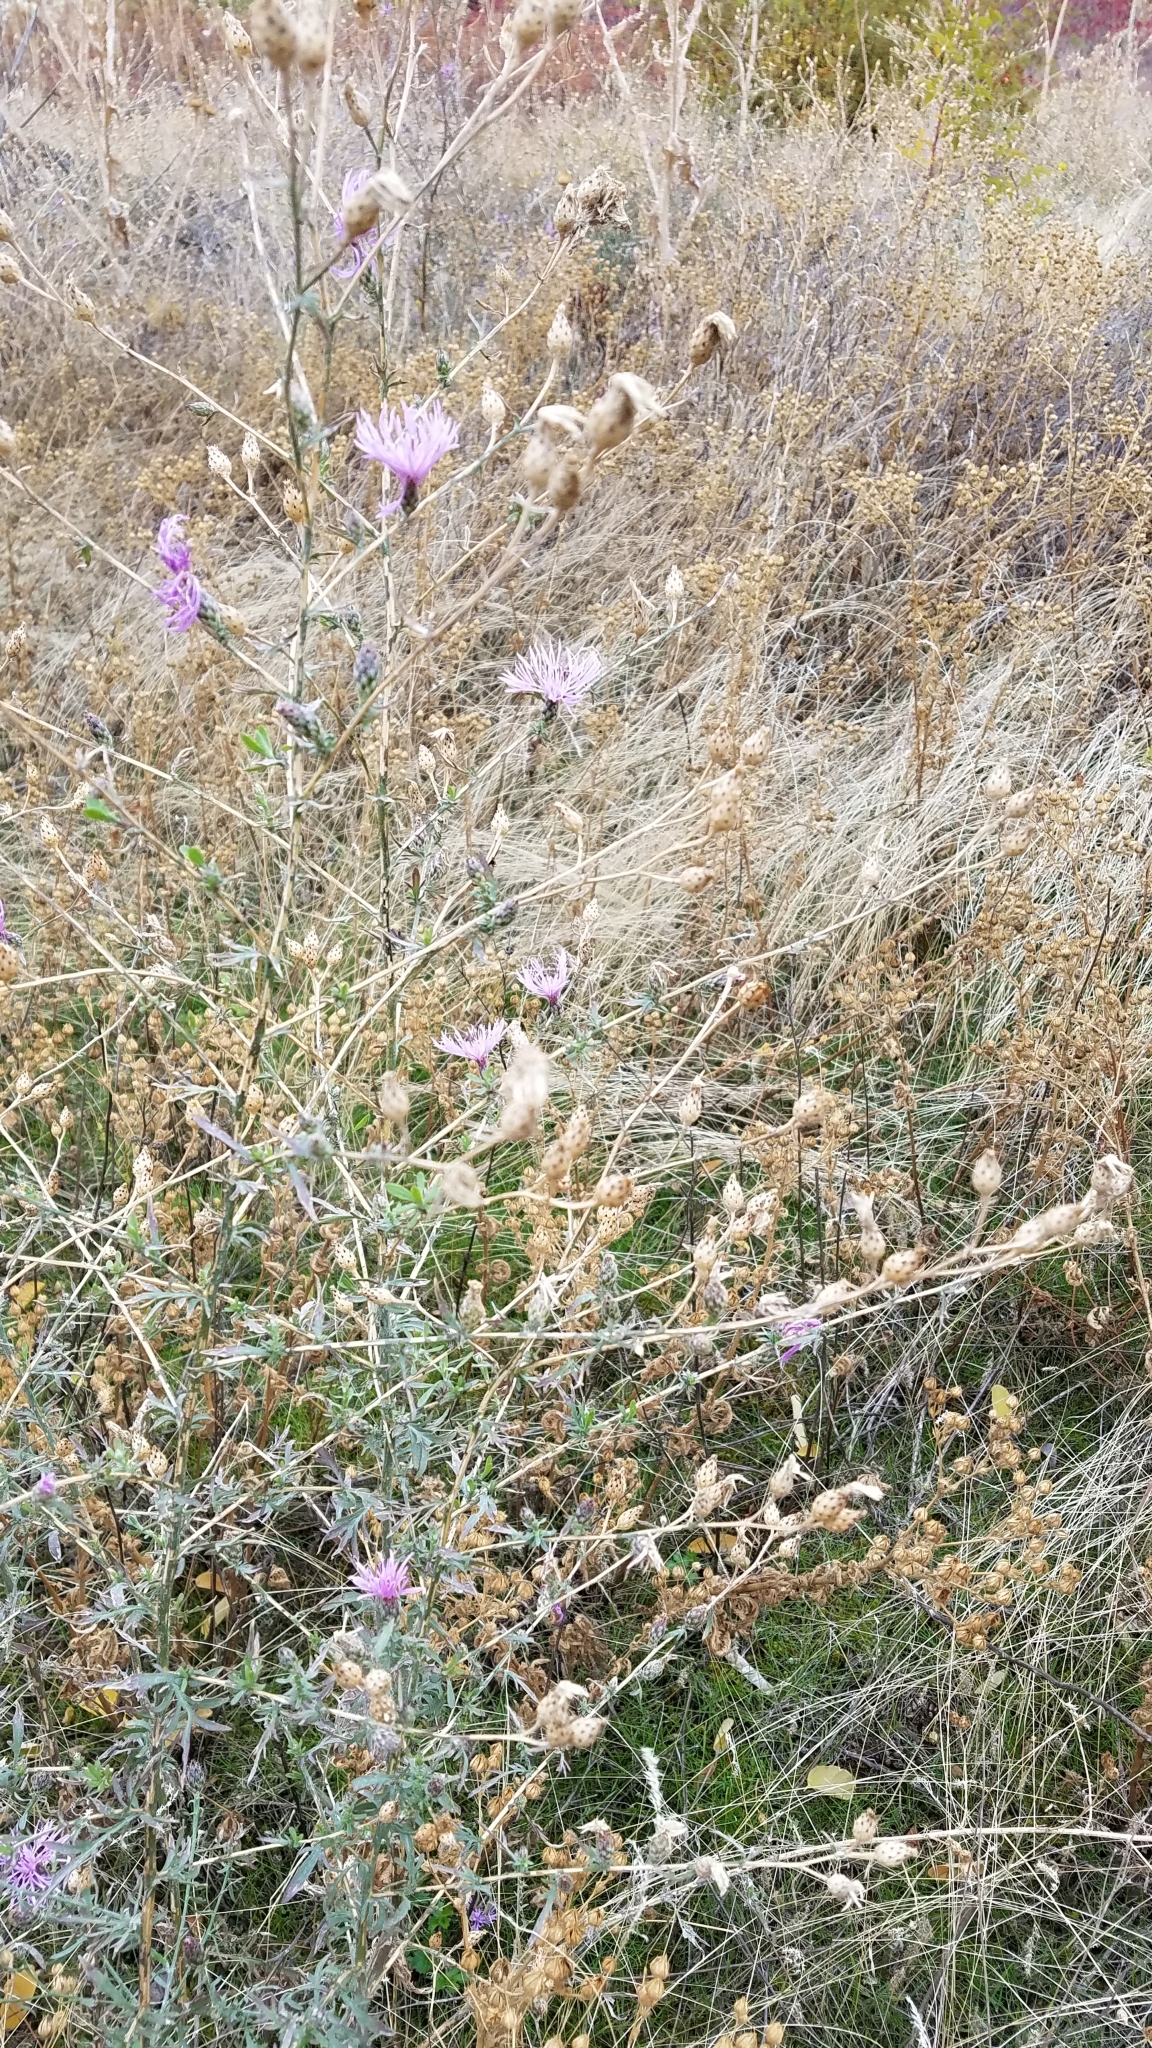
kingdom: Plantae
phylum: Tracheophyta
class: Magnoliopsida
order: Asterales
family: Asteraceae
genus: Centaurea
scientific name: Centaurea stoebe
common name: Spotted knapweed
